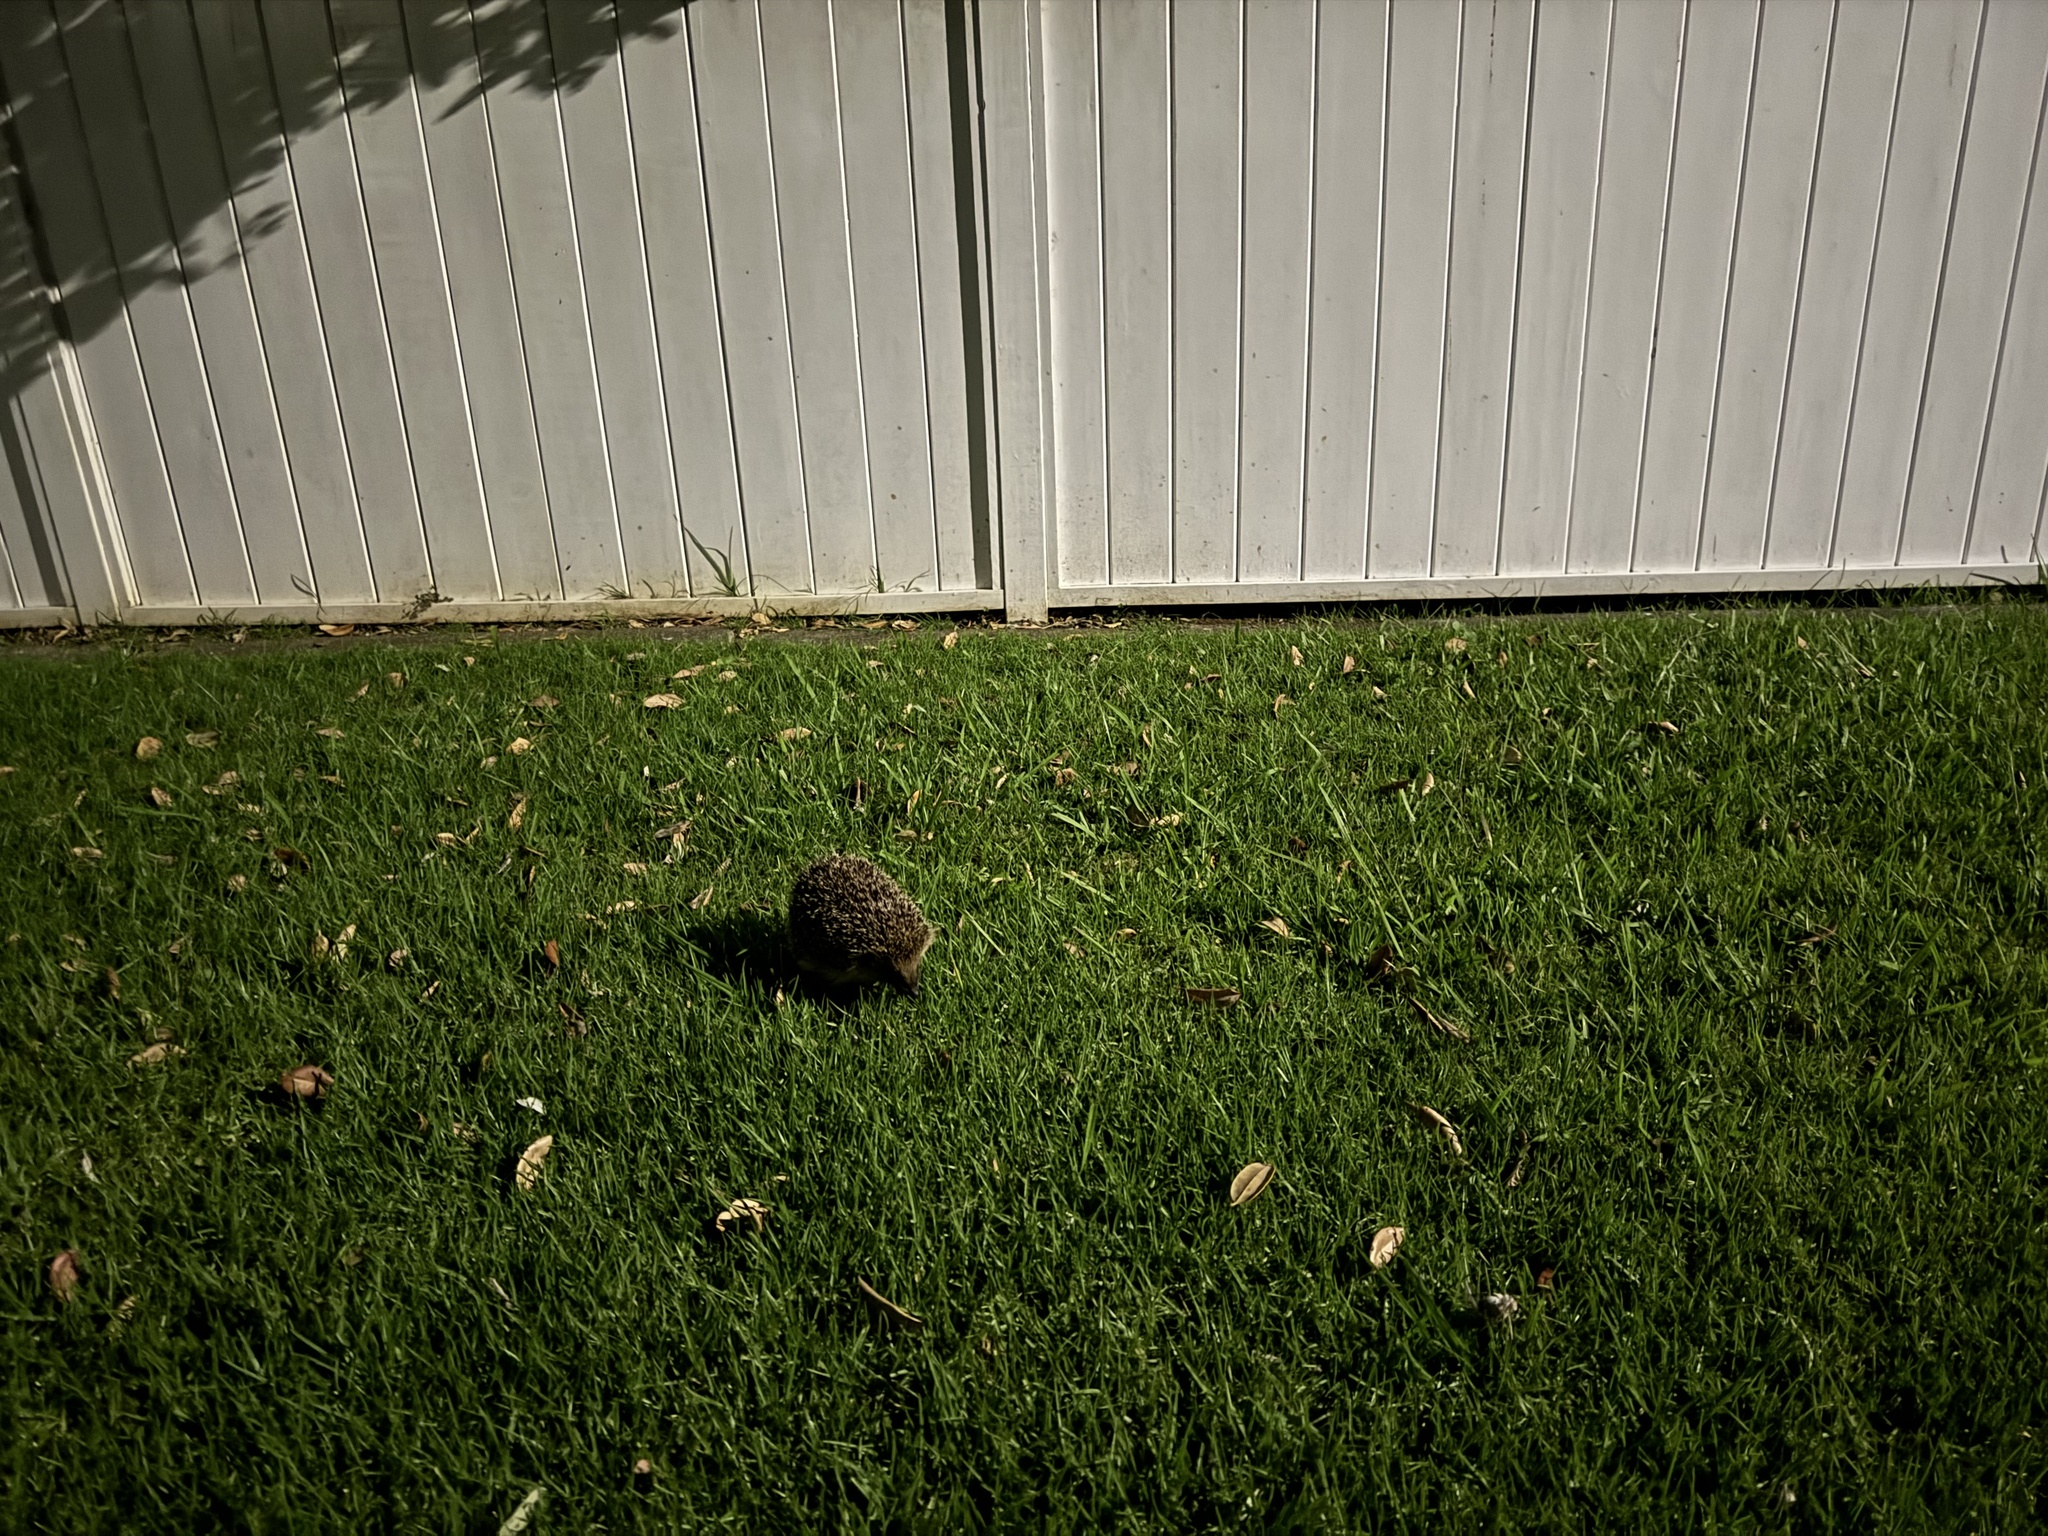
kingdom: Animalia
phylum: Chordata
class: Mammalia
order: Erinaceomorpha
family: Erinaceidae
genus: Erinaceus
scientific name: Erinaceus europaeus
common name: West european hedgehog
